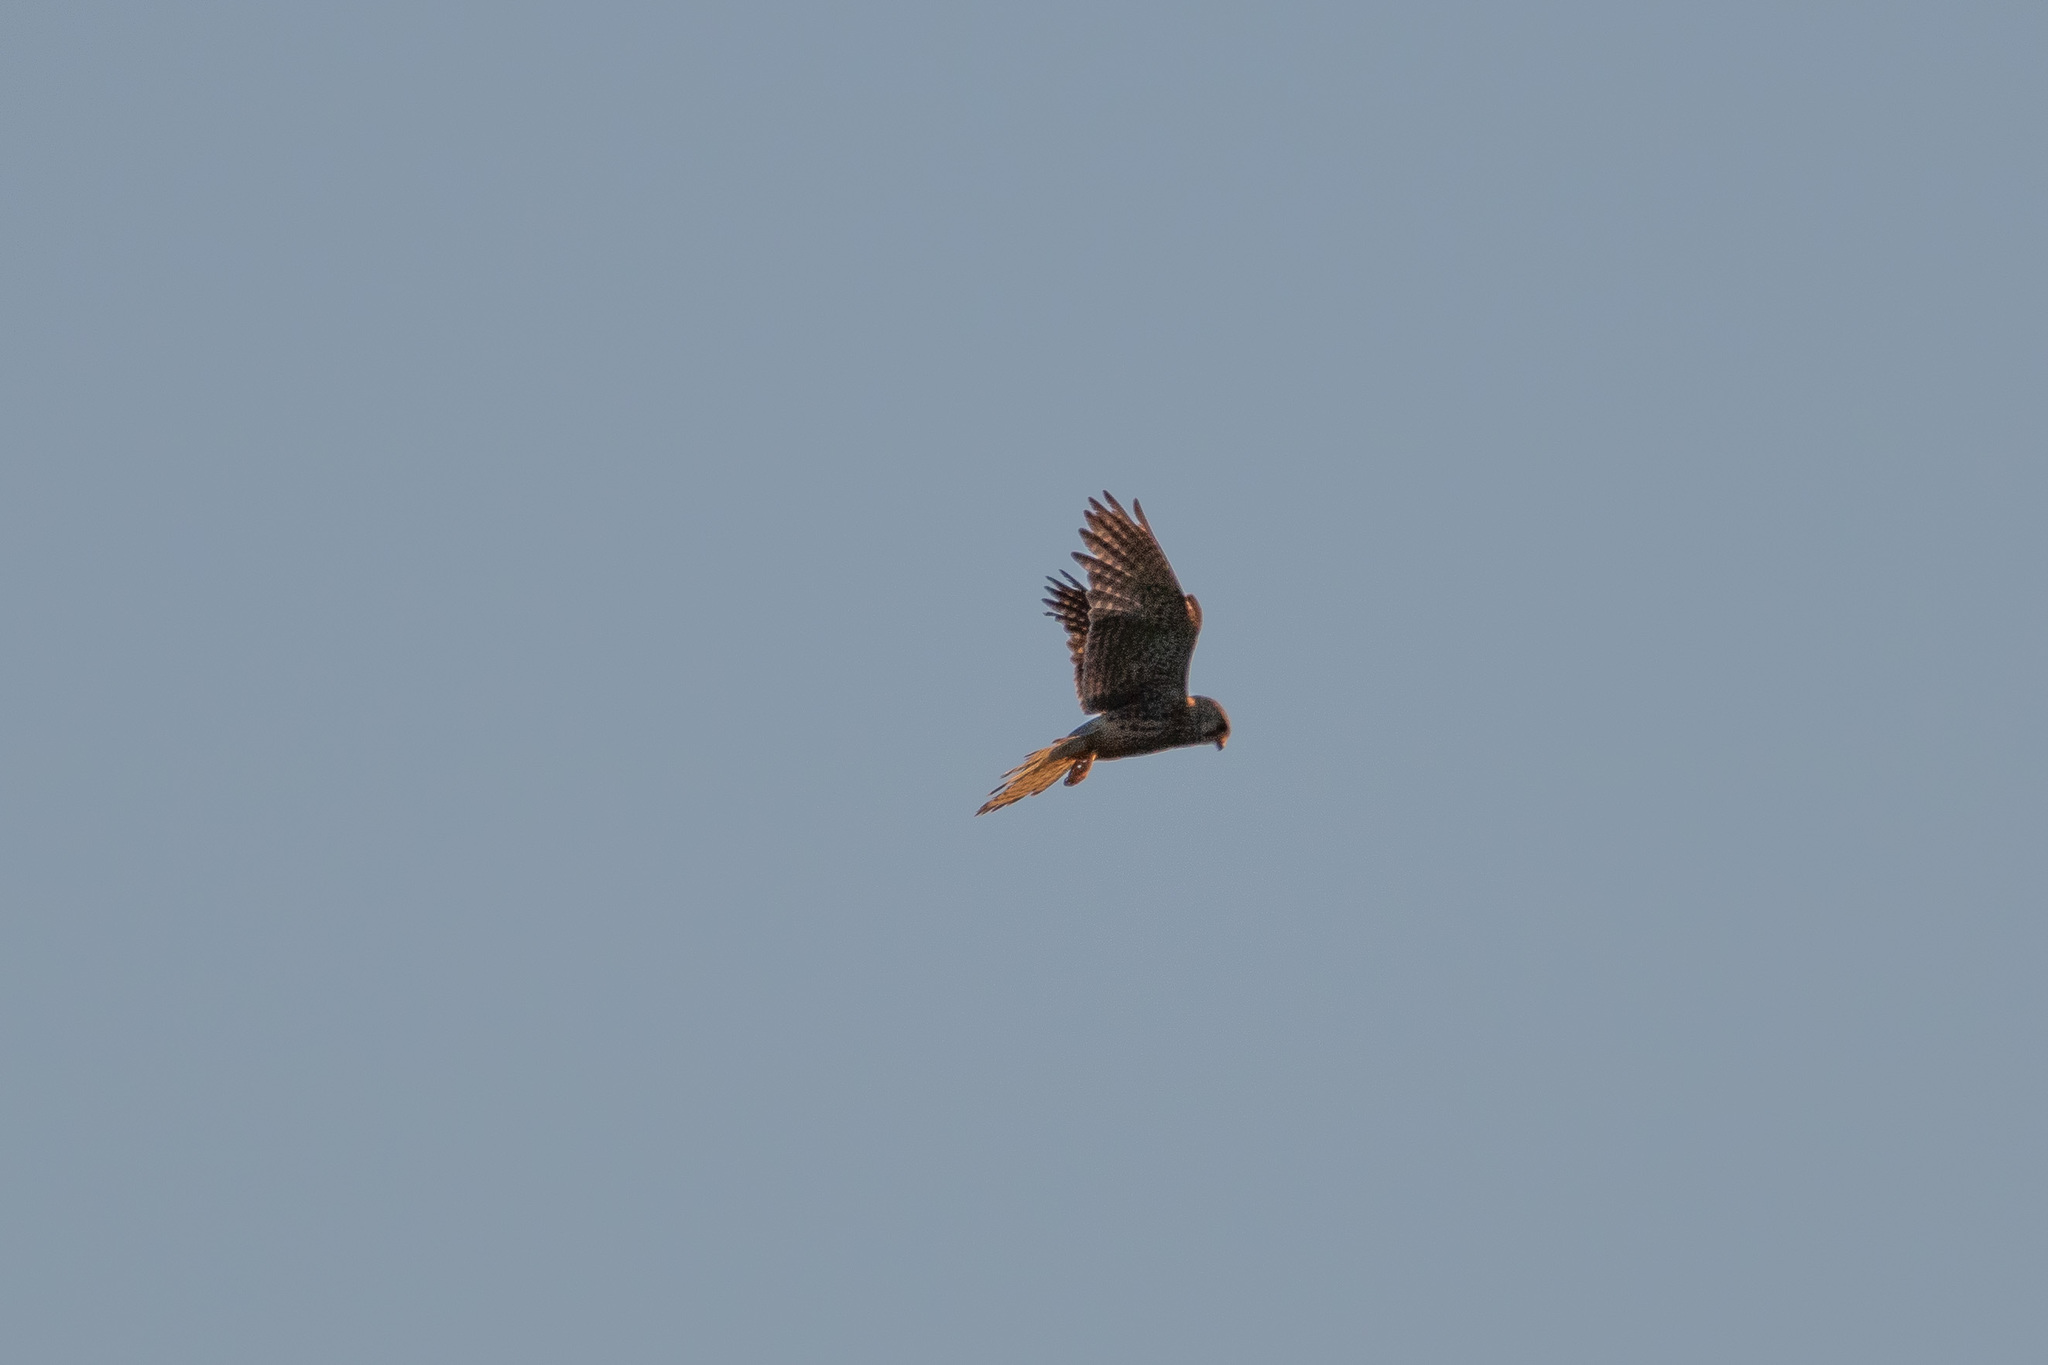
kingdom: Animalia
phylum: Chordata
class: Aves
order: Falconiformes
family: Falconidae
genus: Falco
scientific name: Falco tinnunculus
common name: Common kestrel
